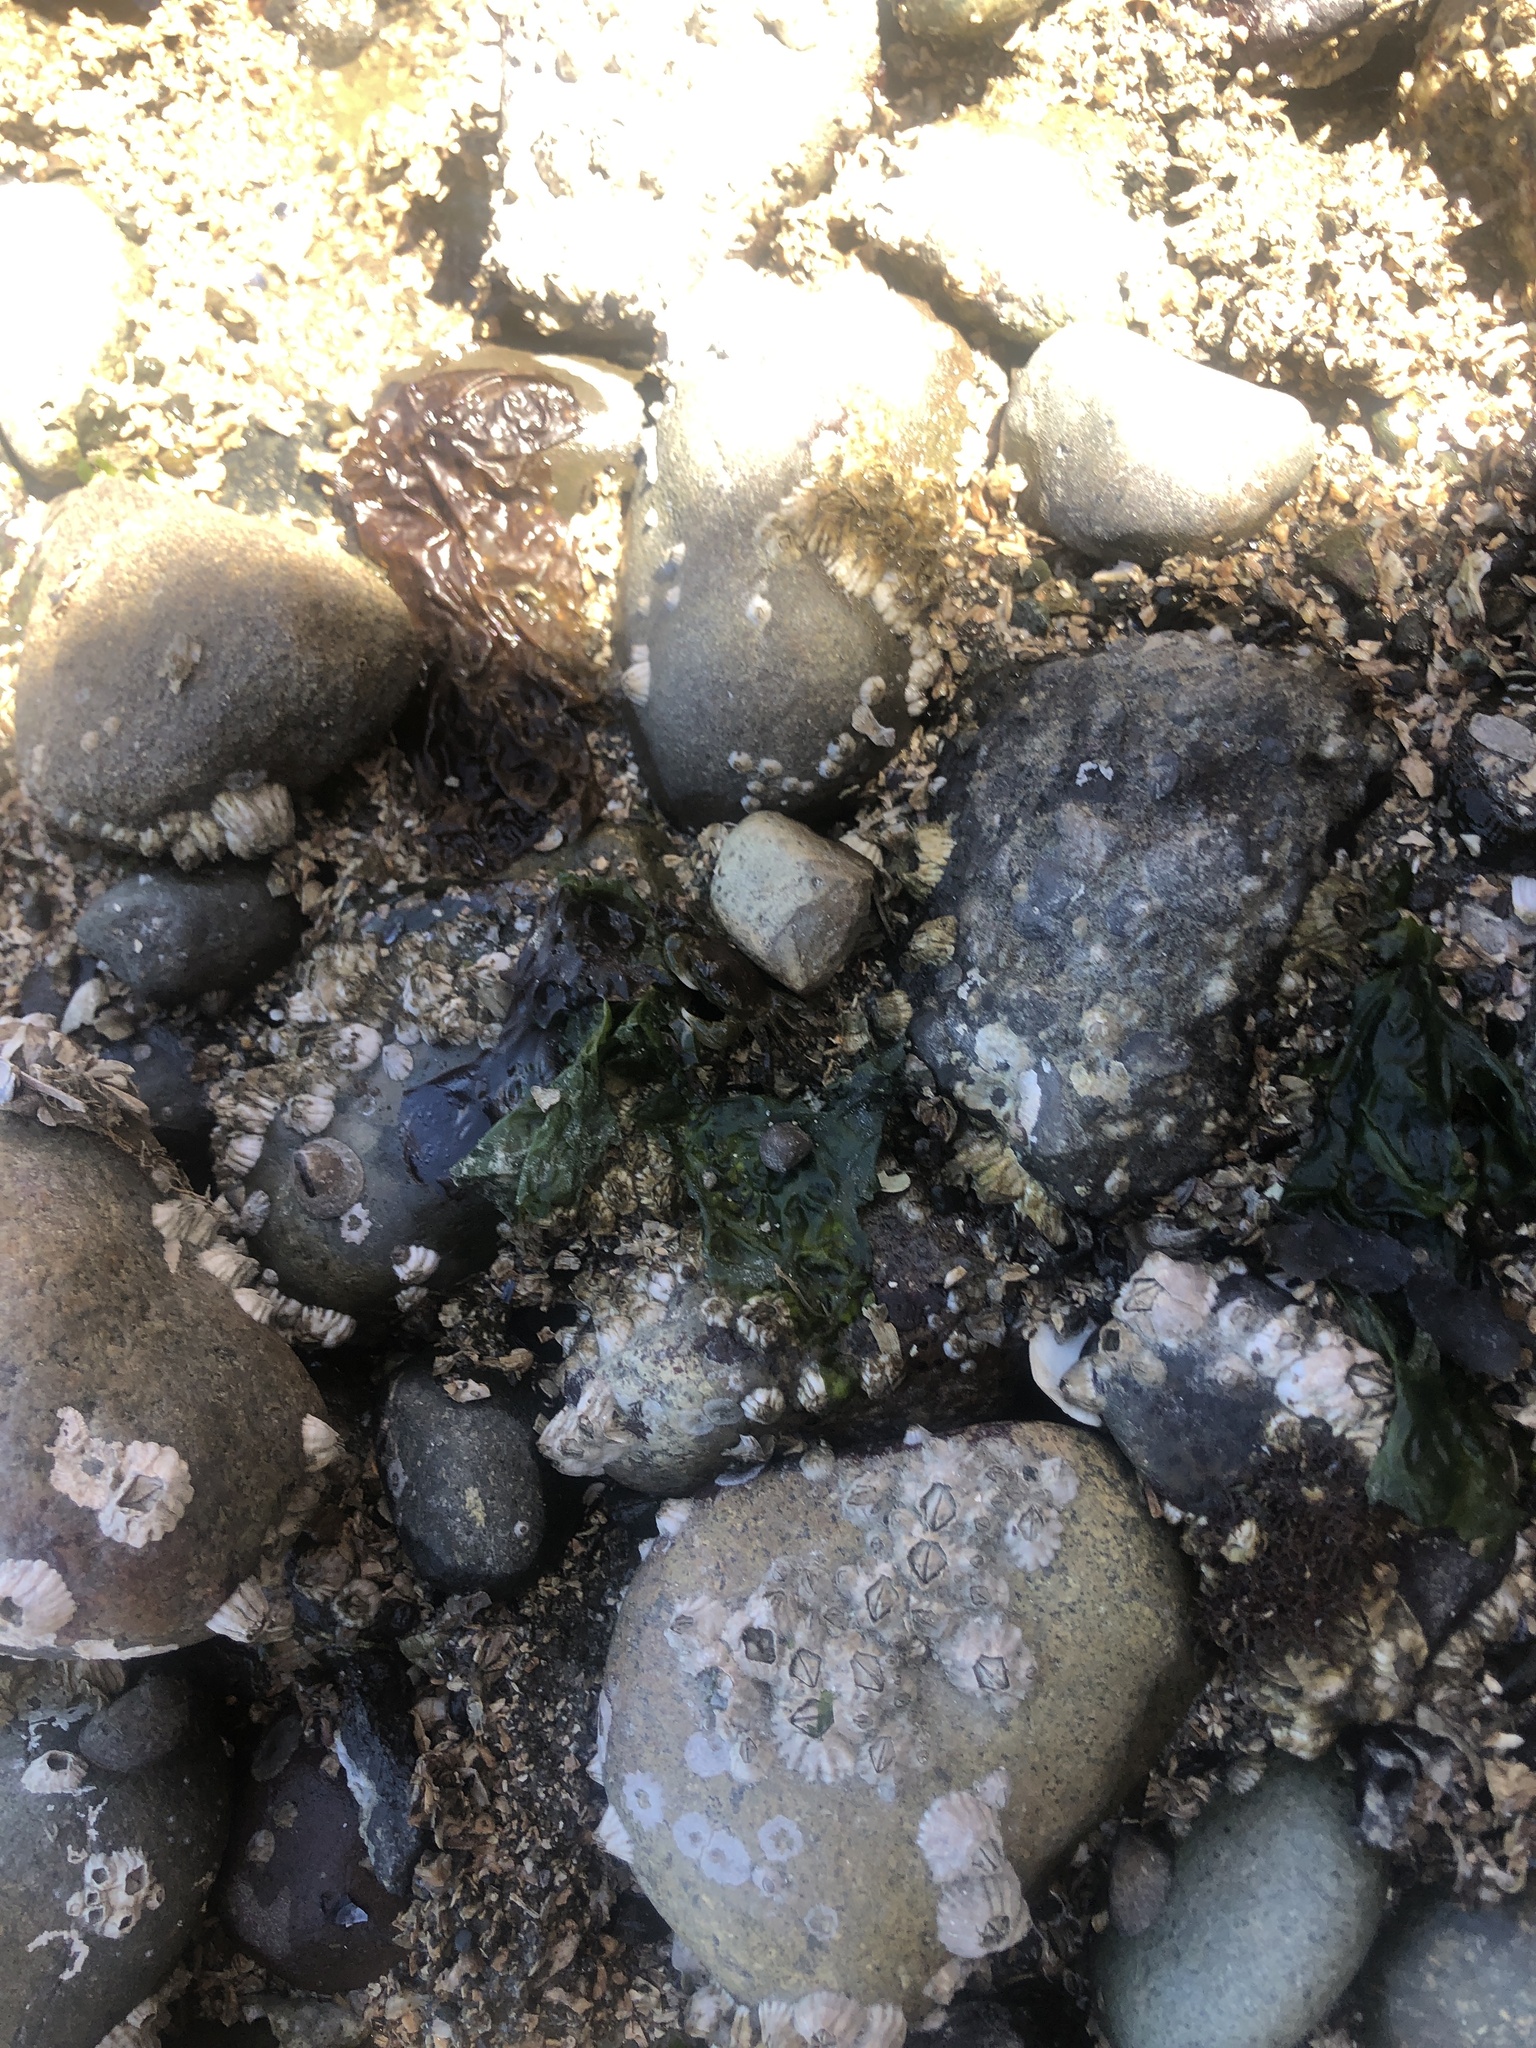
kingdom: Animalia
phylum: Arthropoda
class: Malacostraca
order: Decapoda
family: Varunidae
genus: Hemigrapsus
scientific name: Hemigrapsus oregonensis
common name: Yellow shore crab
